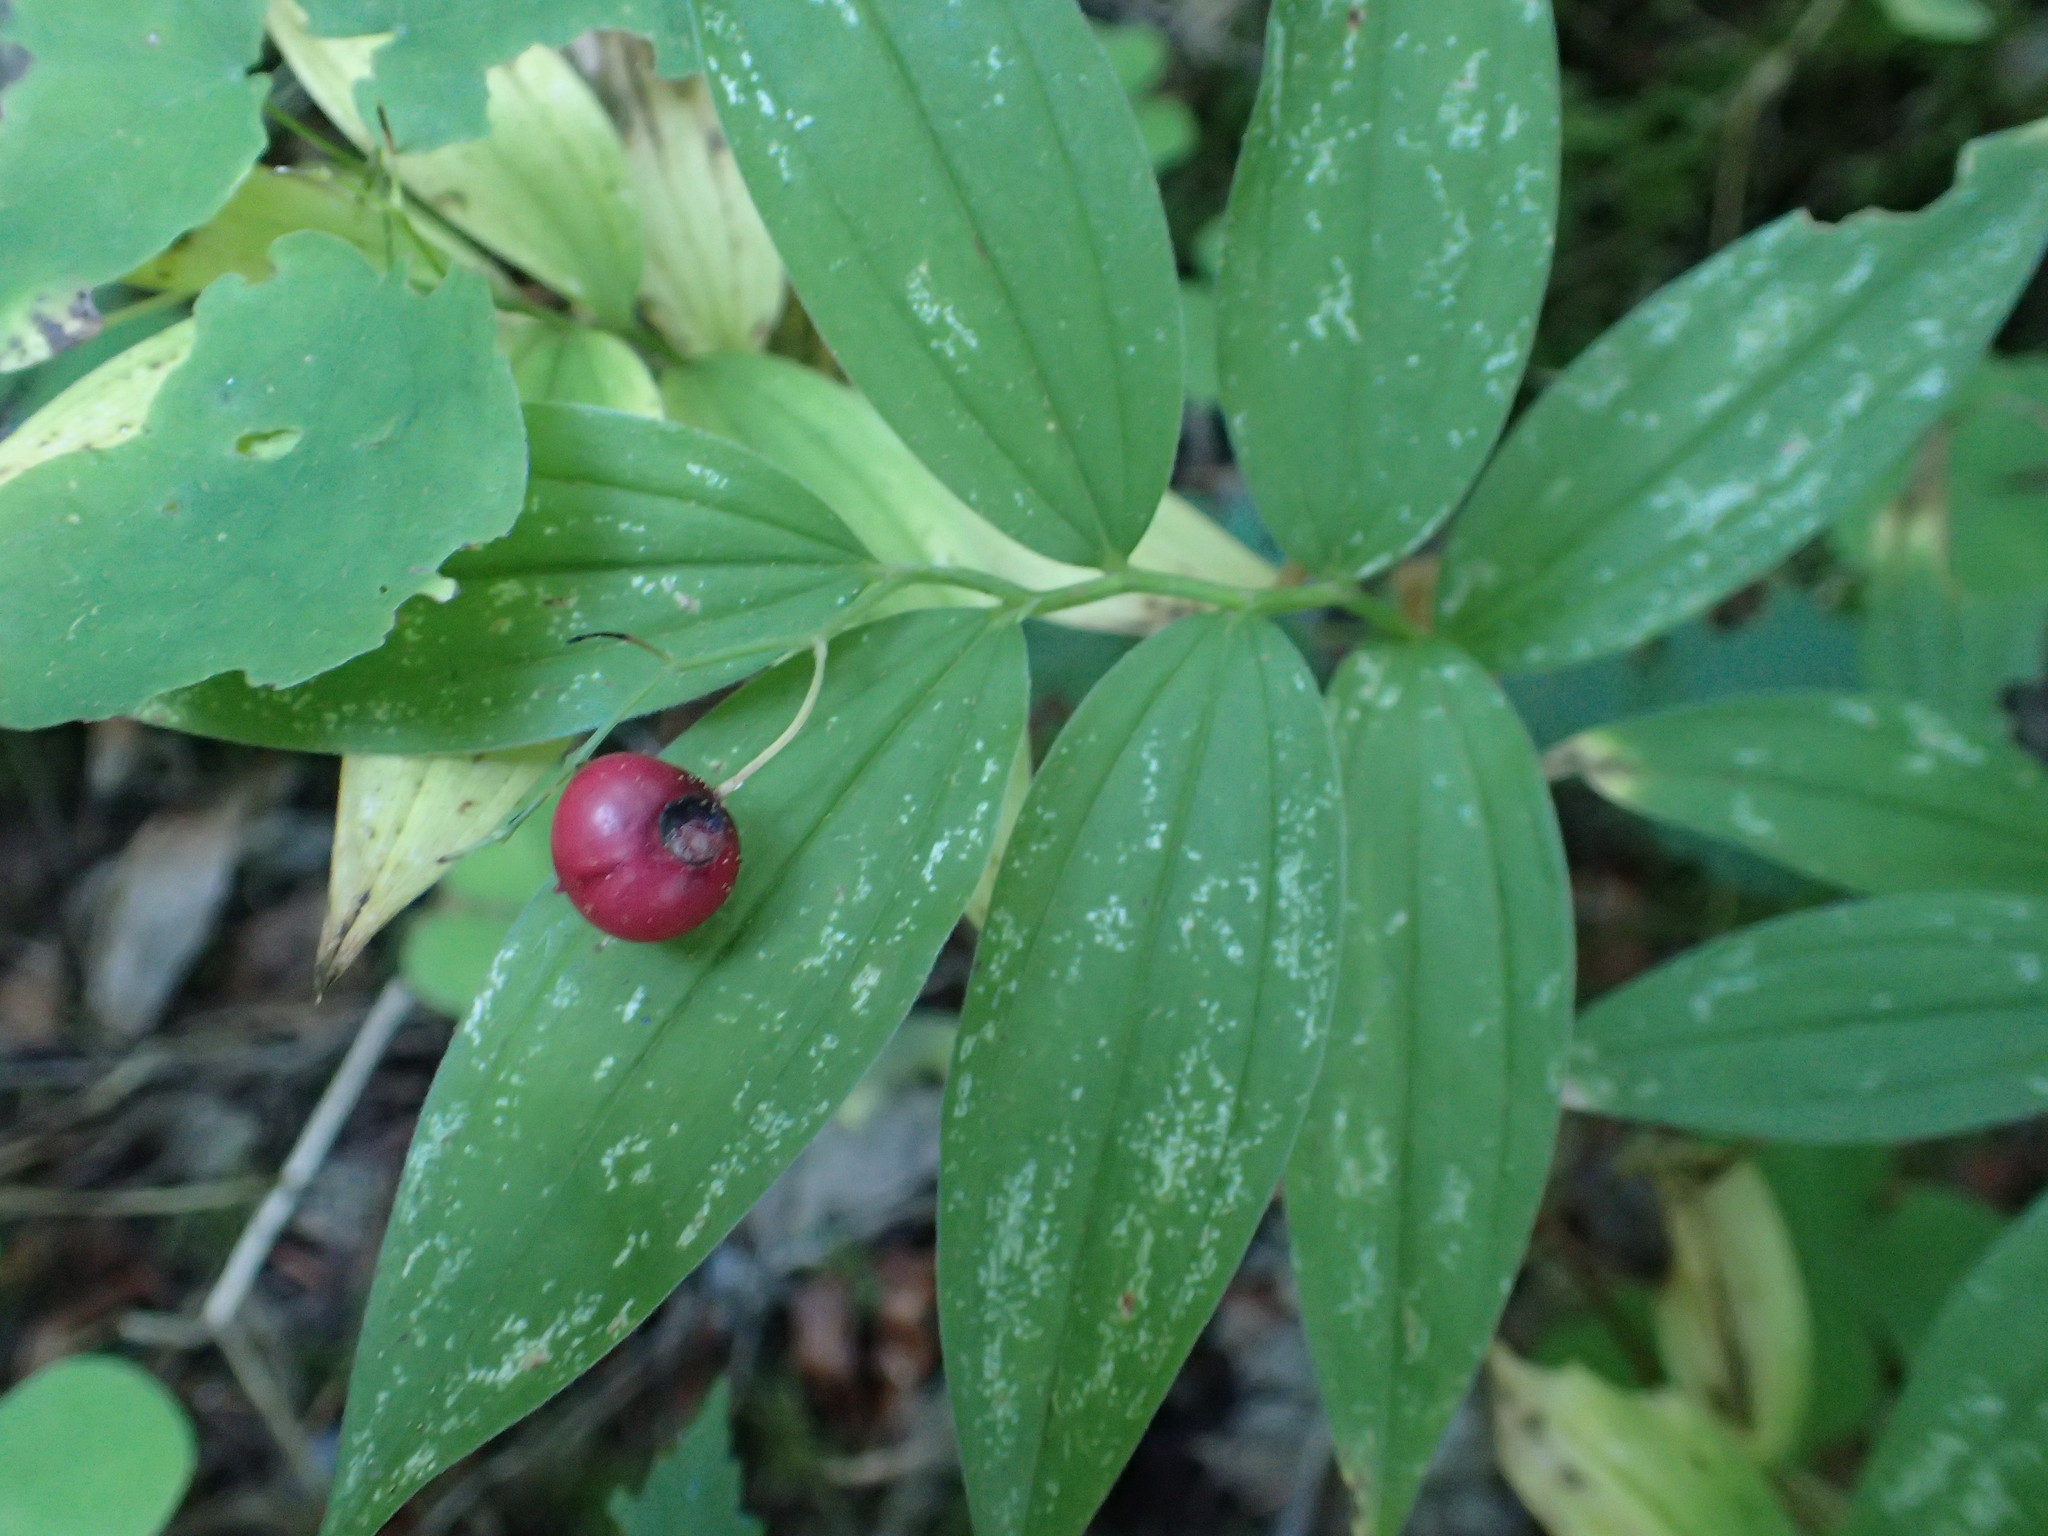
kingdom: Plantae
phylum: Tracheophyta
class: Liliopsida
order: Asparagales
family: Asparagaceae
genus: Maianthemum
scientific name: Maianthemum stellatum
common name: Little false solomon's seal
